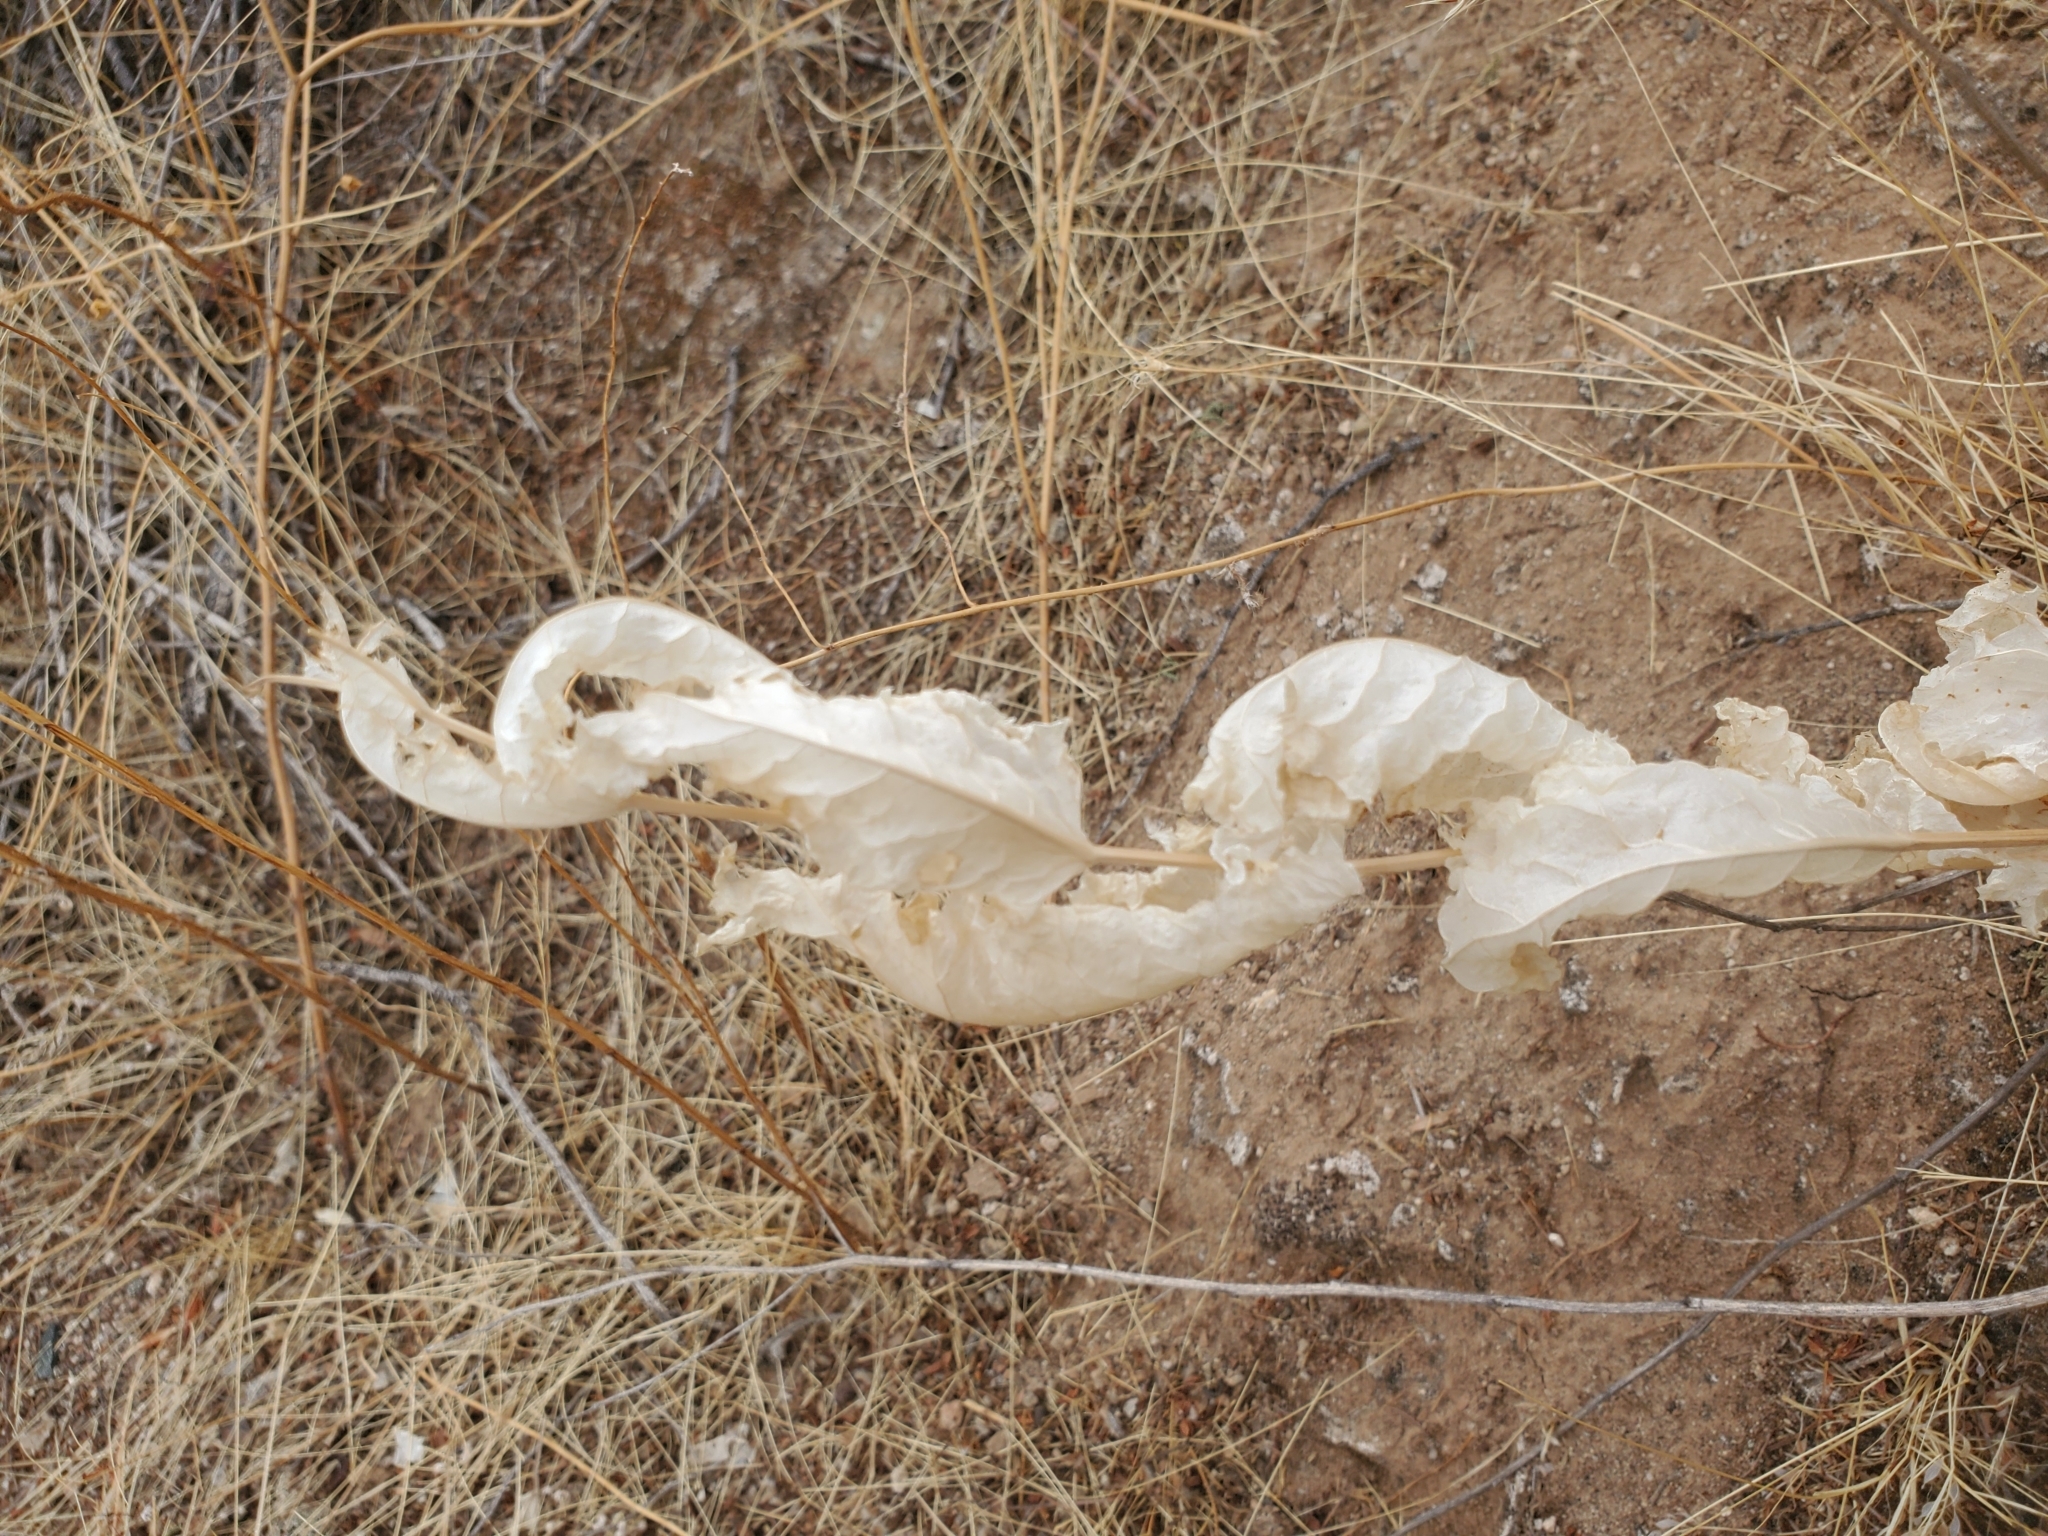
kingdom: Plantae
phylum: Tracheophyta
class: Magnoliopsida
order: Asterales
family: Asteraceae
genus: Acourtia
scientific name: Acourtia wrightii
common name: Brownfoot
